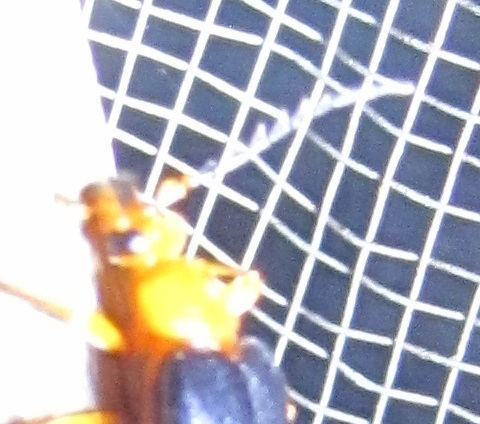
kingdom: Animalia
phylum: Arthropoda
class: Insecta
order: Coleoptera
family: Pyrochroidae
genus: Neopyrochroa
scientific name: Neopyrochroa flabellata
